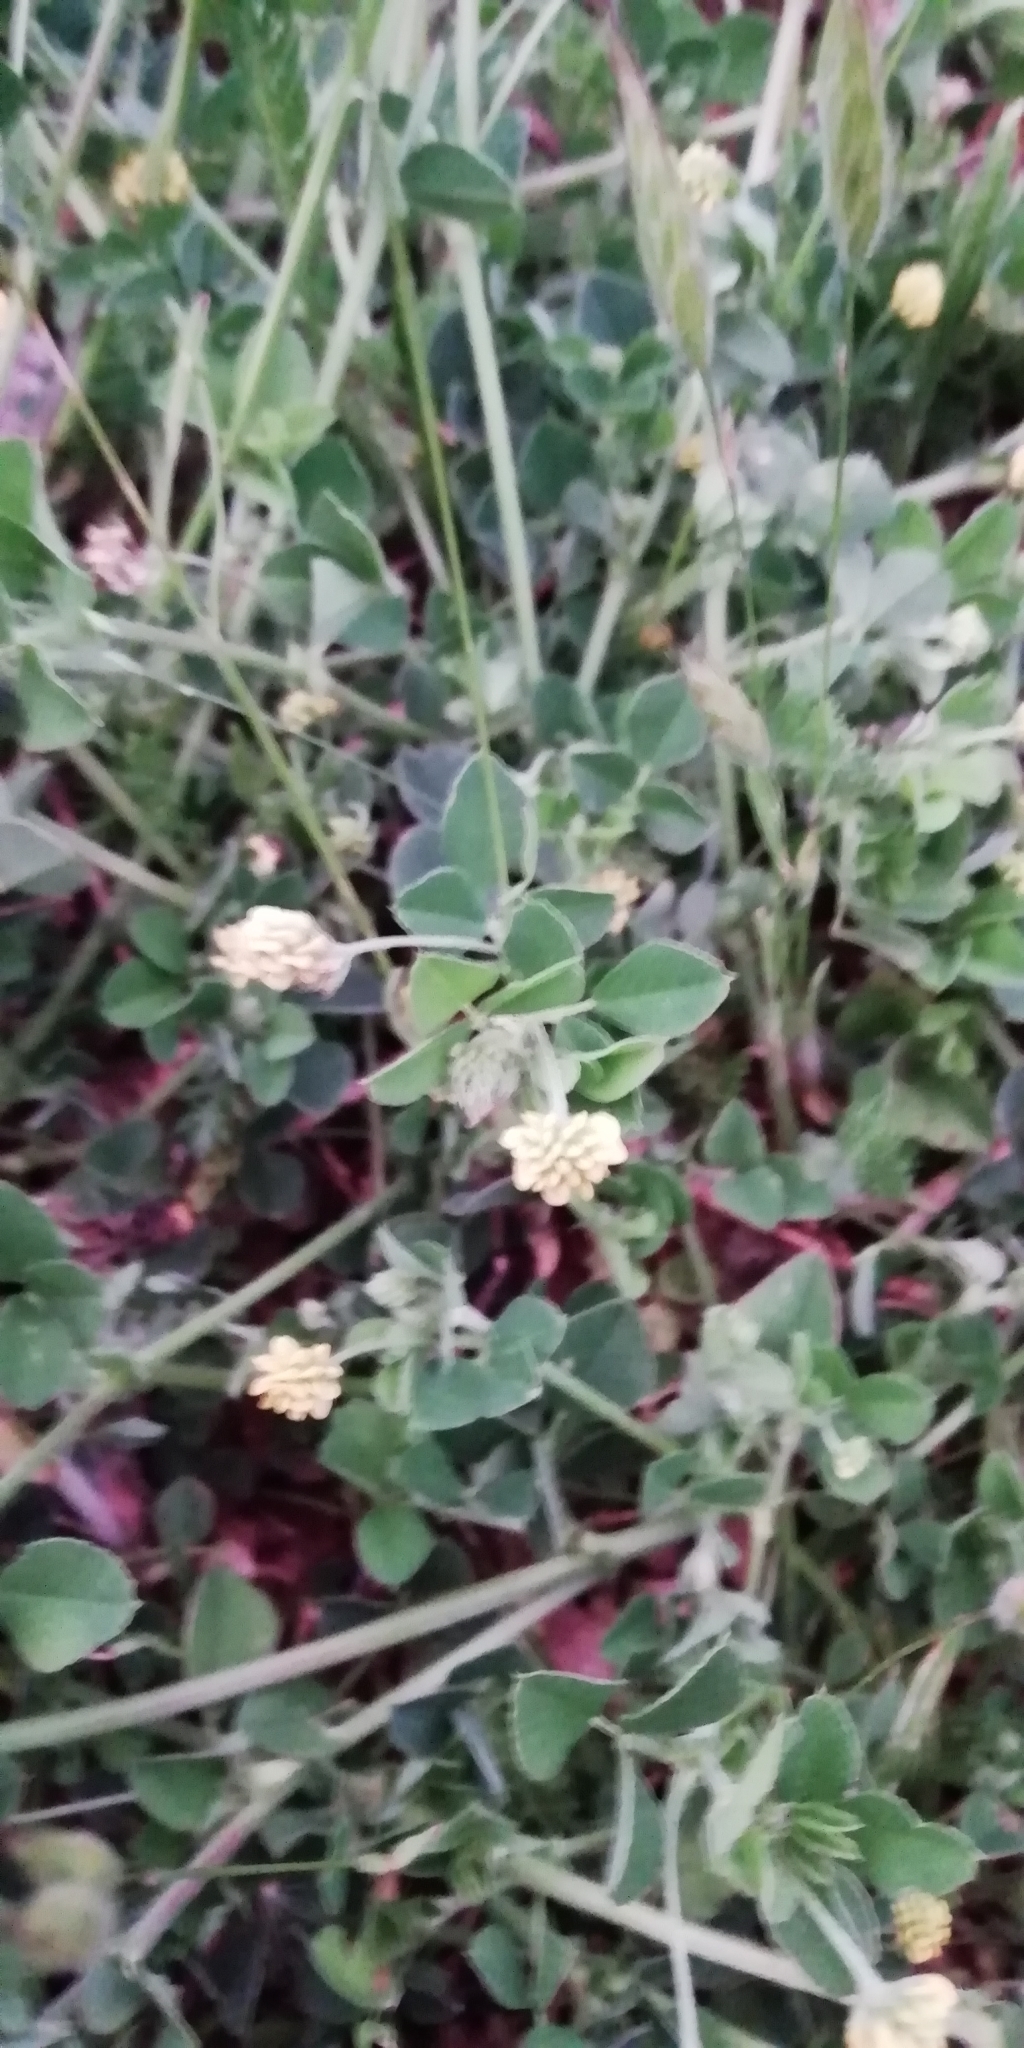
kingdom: Plantae
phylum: Tracheophyta
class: Magnoliopsida
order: Fabales
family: Fabaceae
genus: Medicago
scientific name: Medicago lupulina
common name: Black medick
